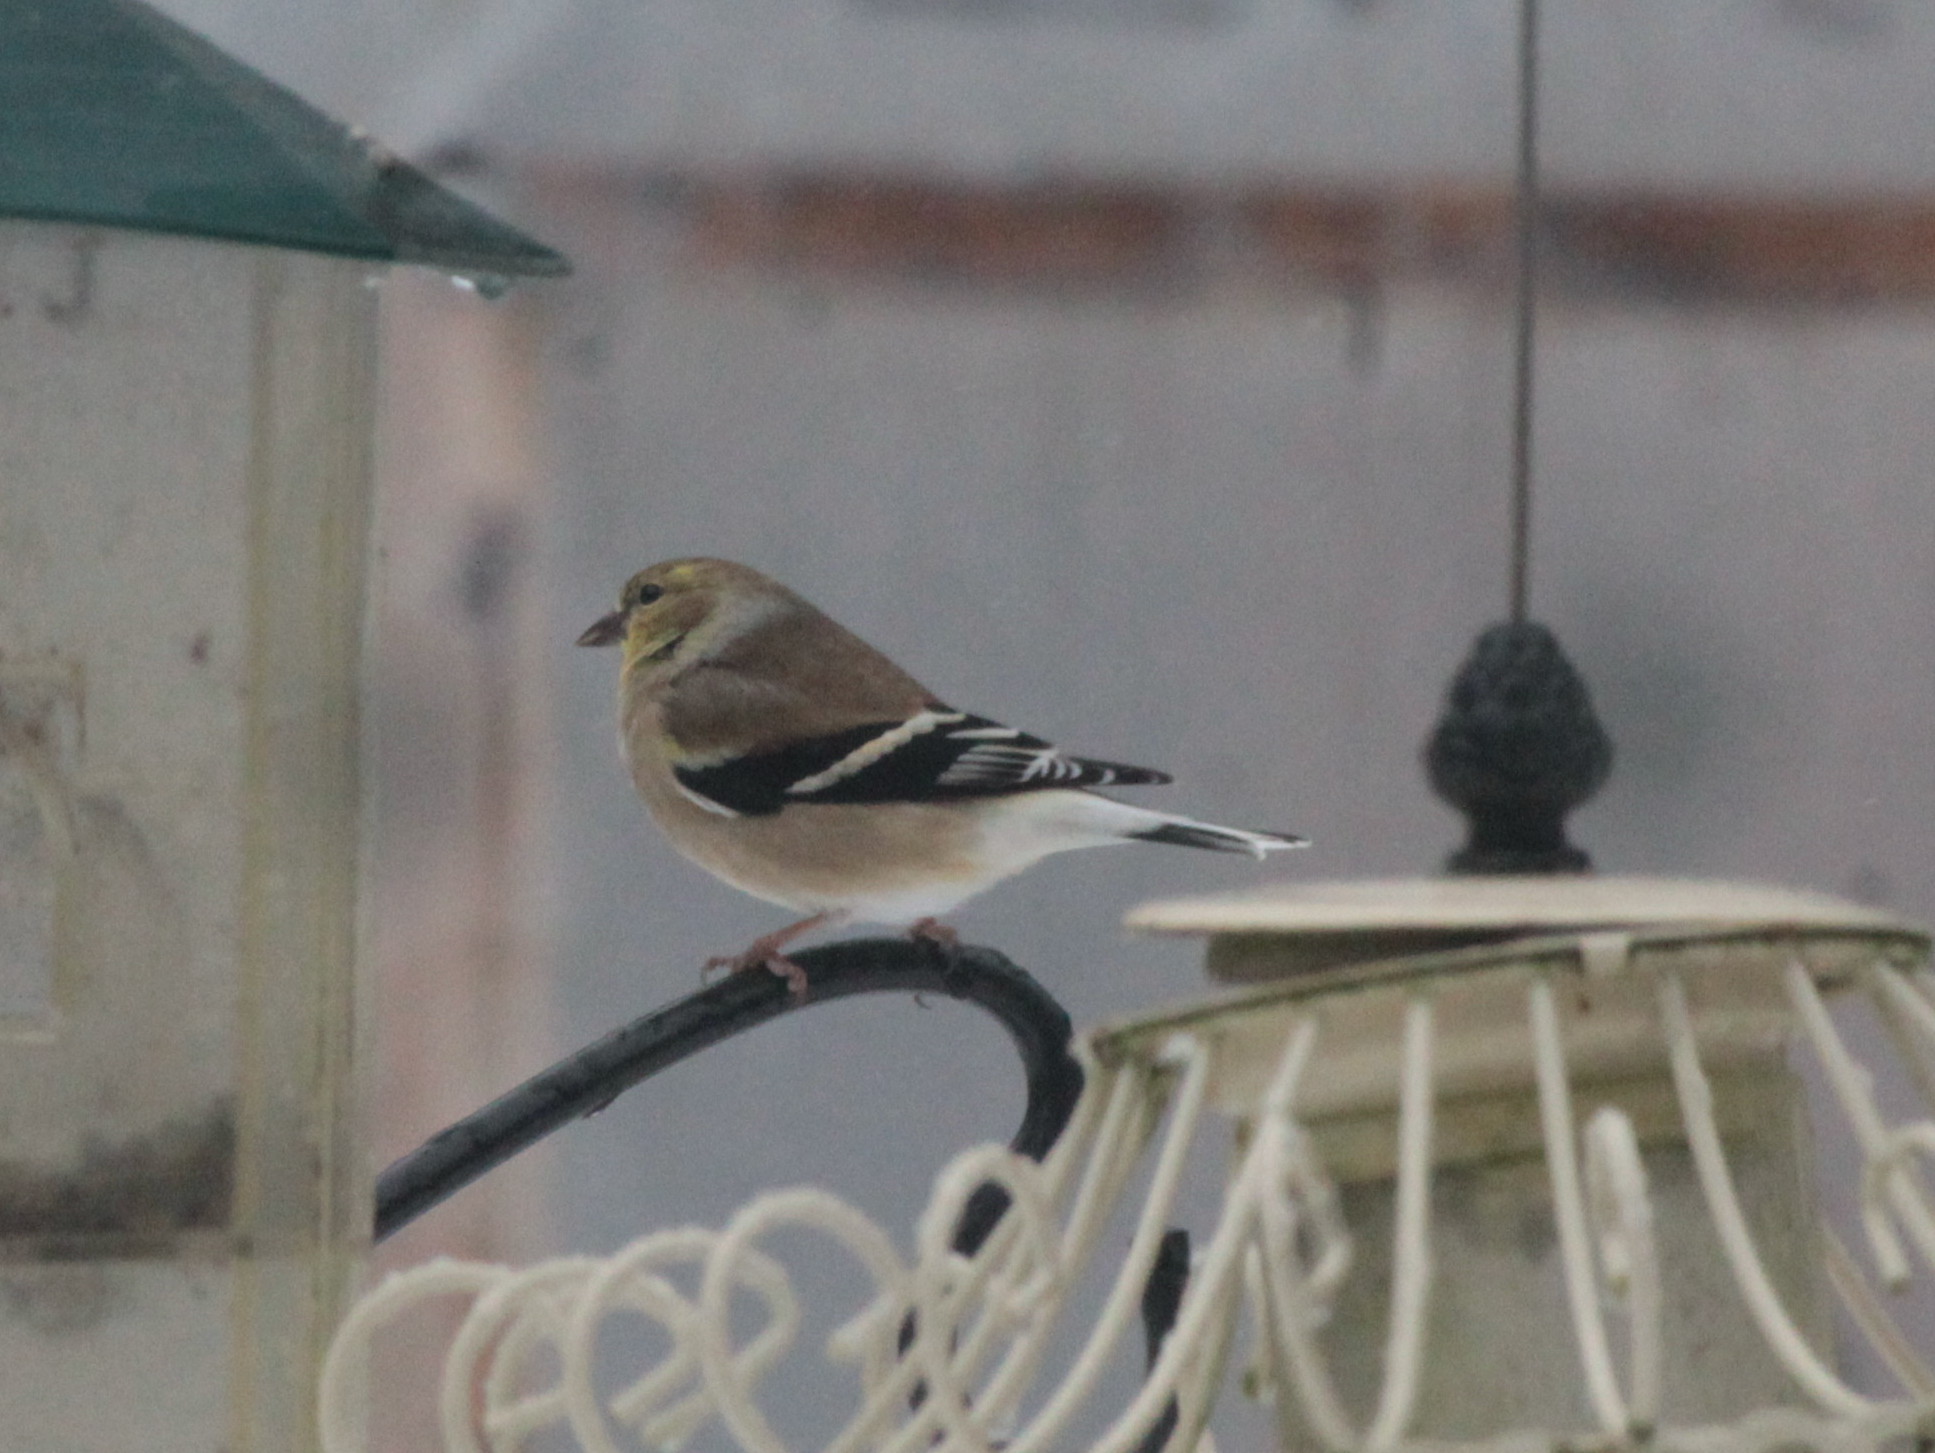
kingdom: Animalia
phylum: Chordata
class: Aves
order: Passeriformes
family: Fringillidae
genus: Spinus
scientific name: Spinus tristis
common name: American goldfinch
